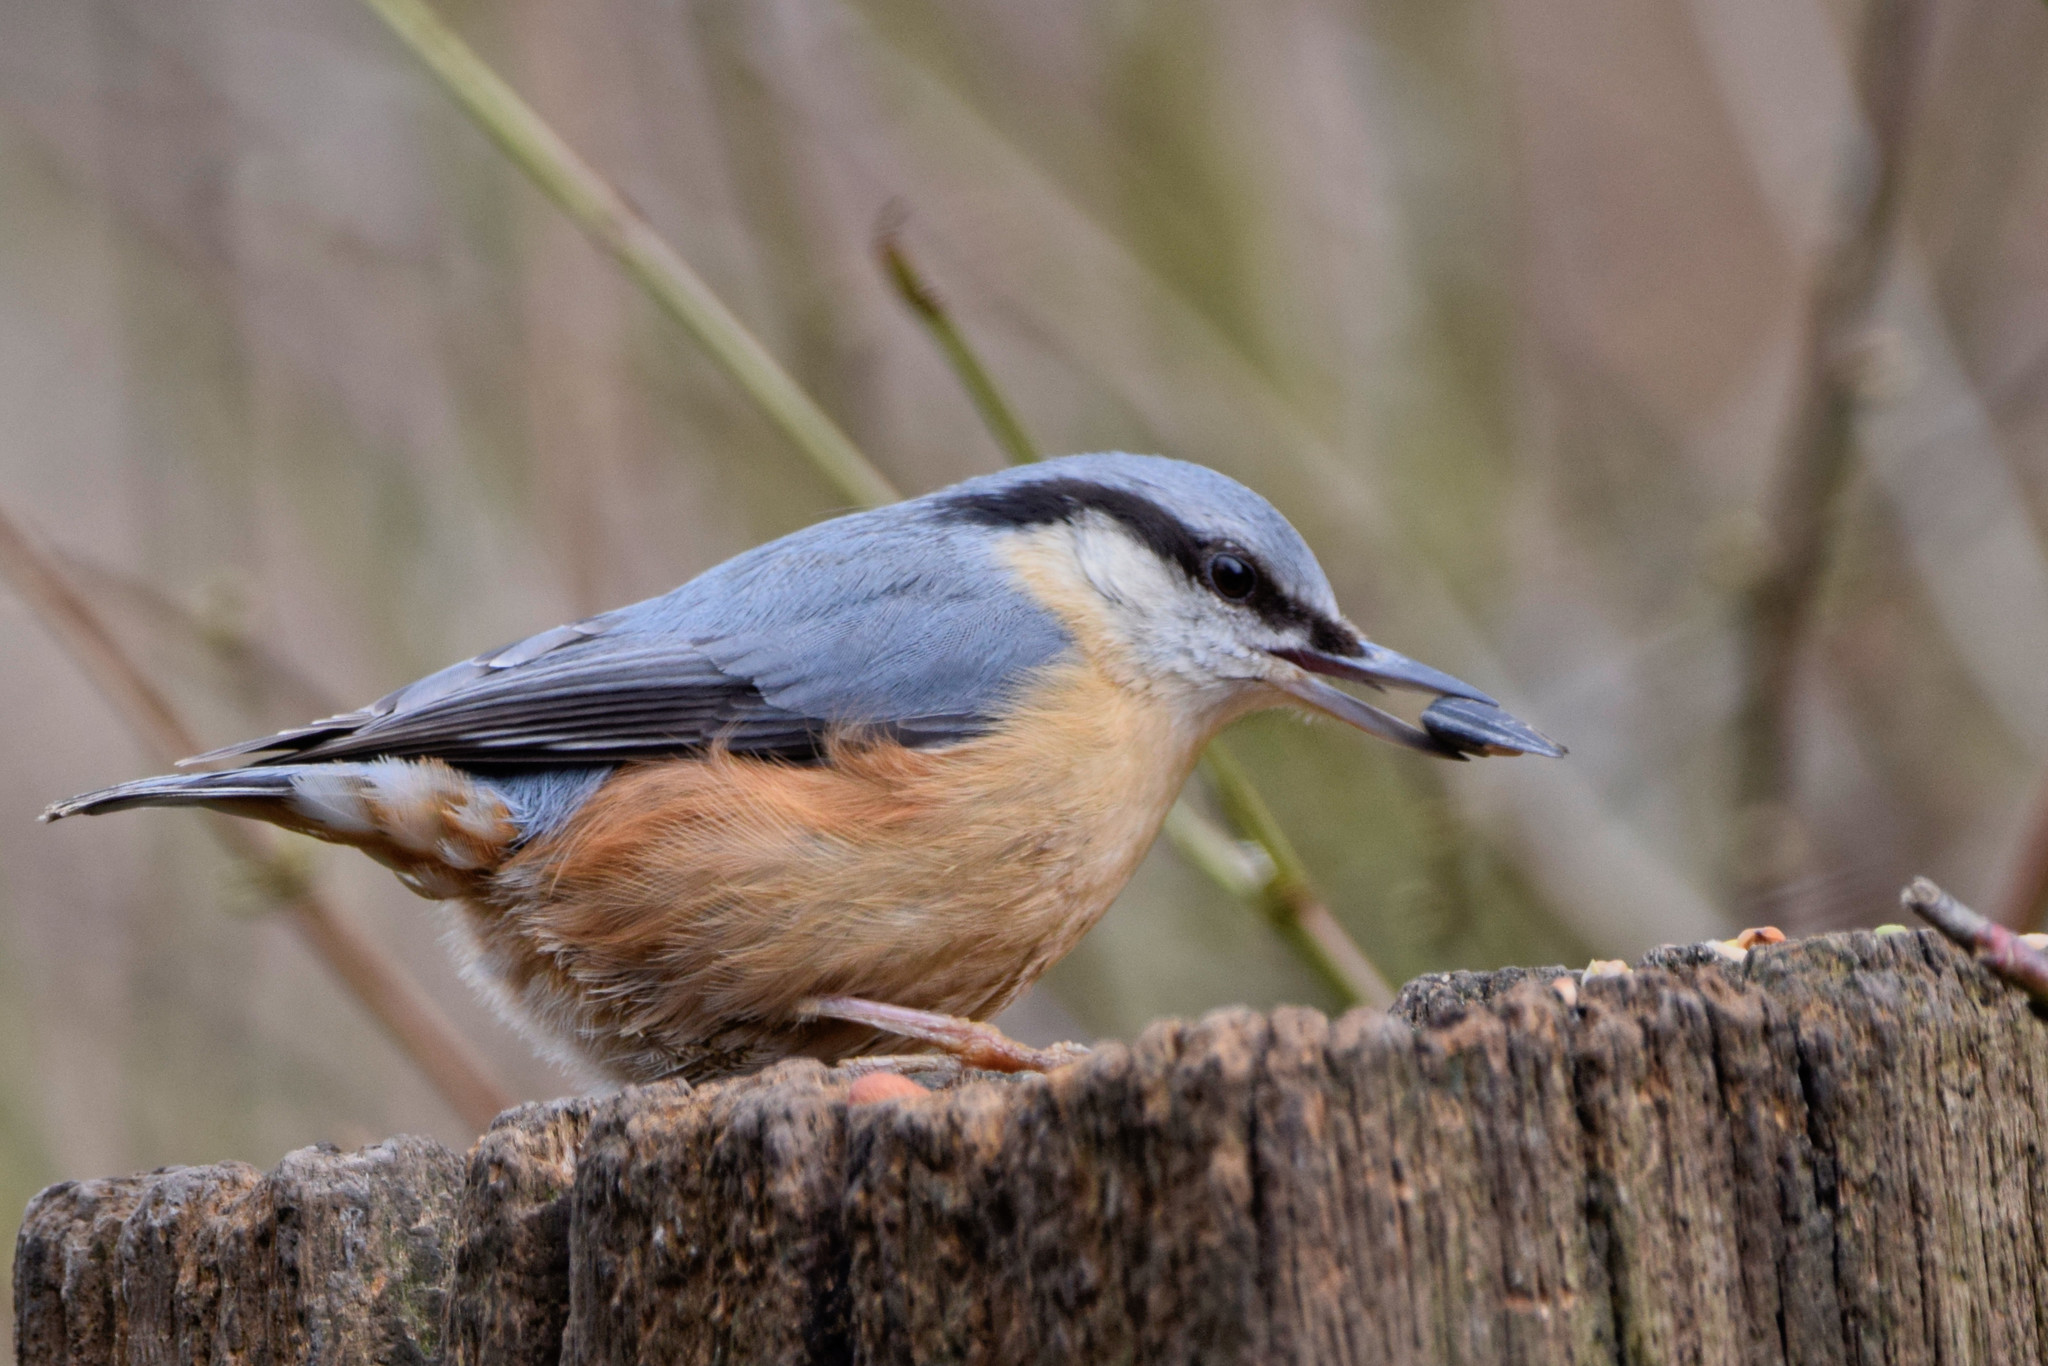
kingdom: Animalia
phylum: Chordata
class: Aves
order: Passeriformes
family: Sittidae
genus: Sitta
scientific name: Sitta europaea
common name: Eurasian nuthatch
